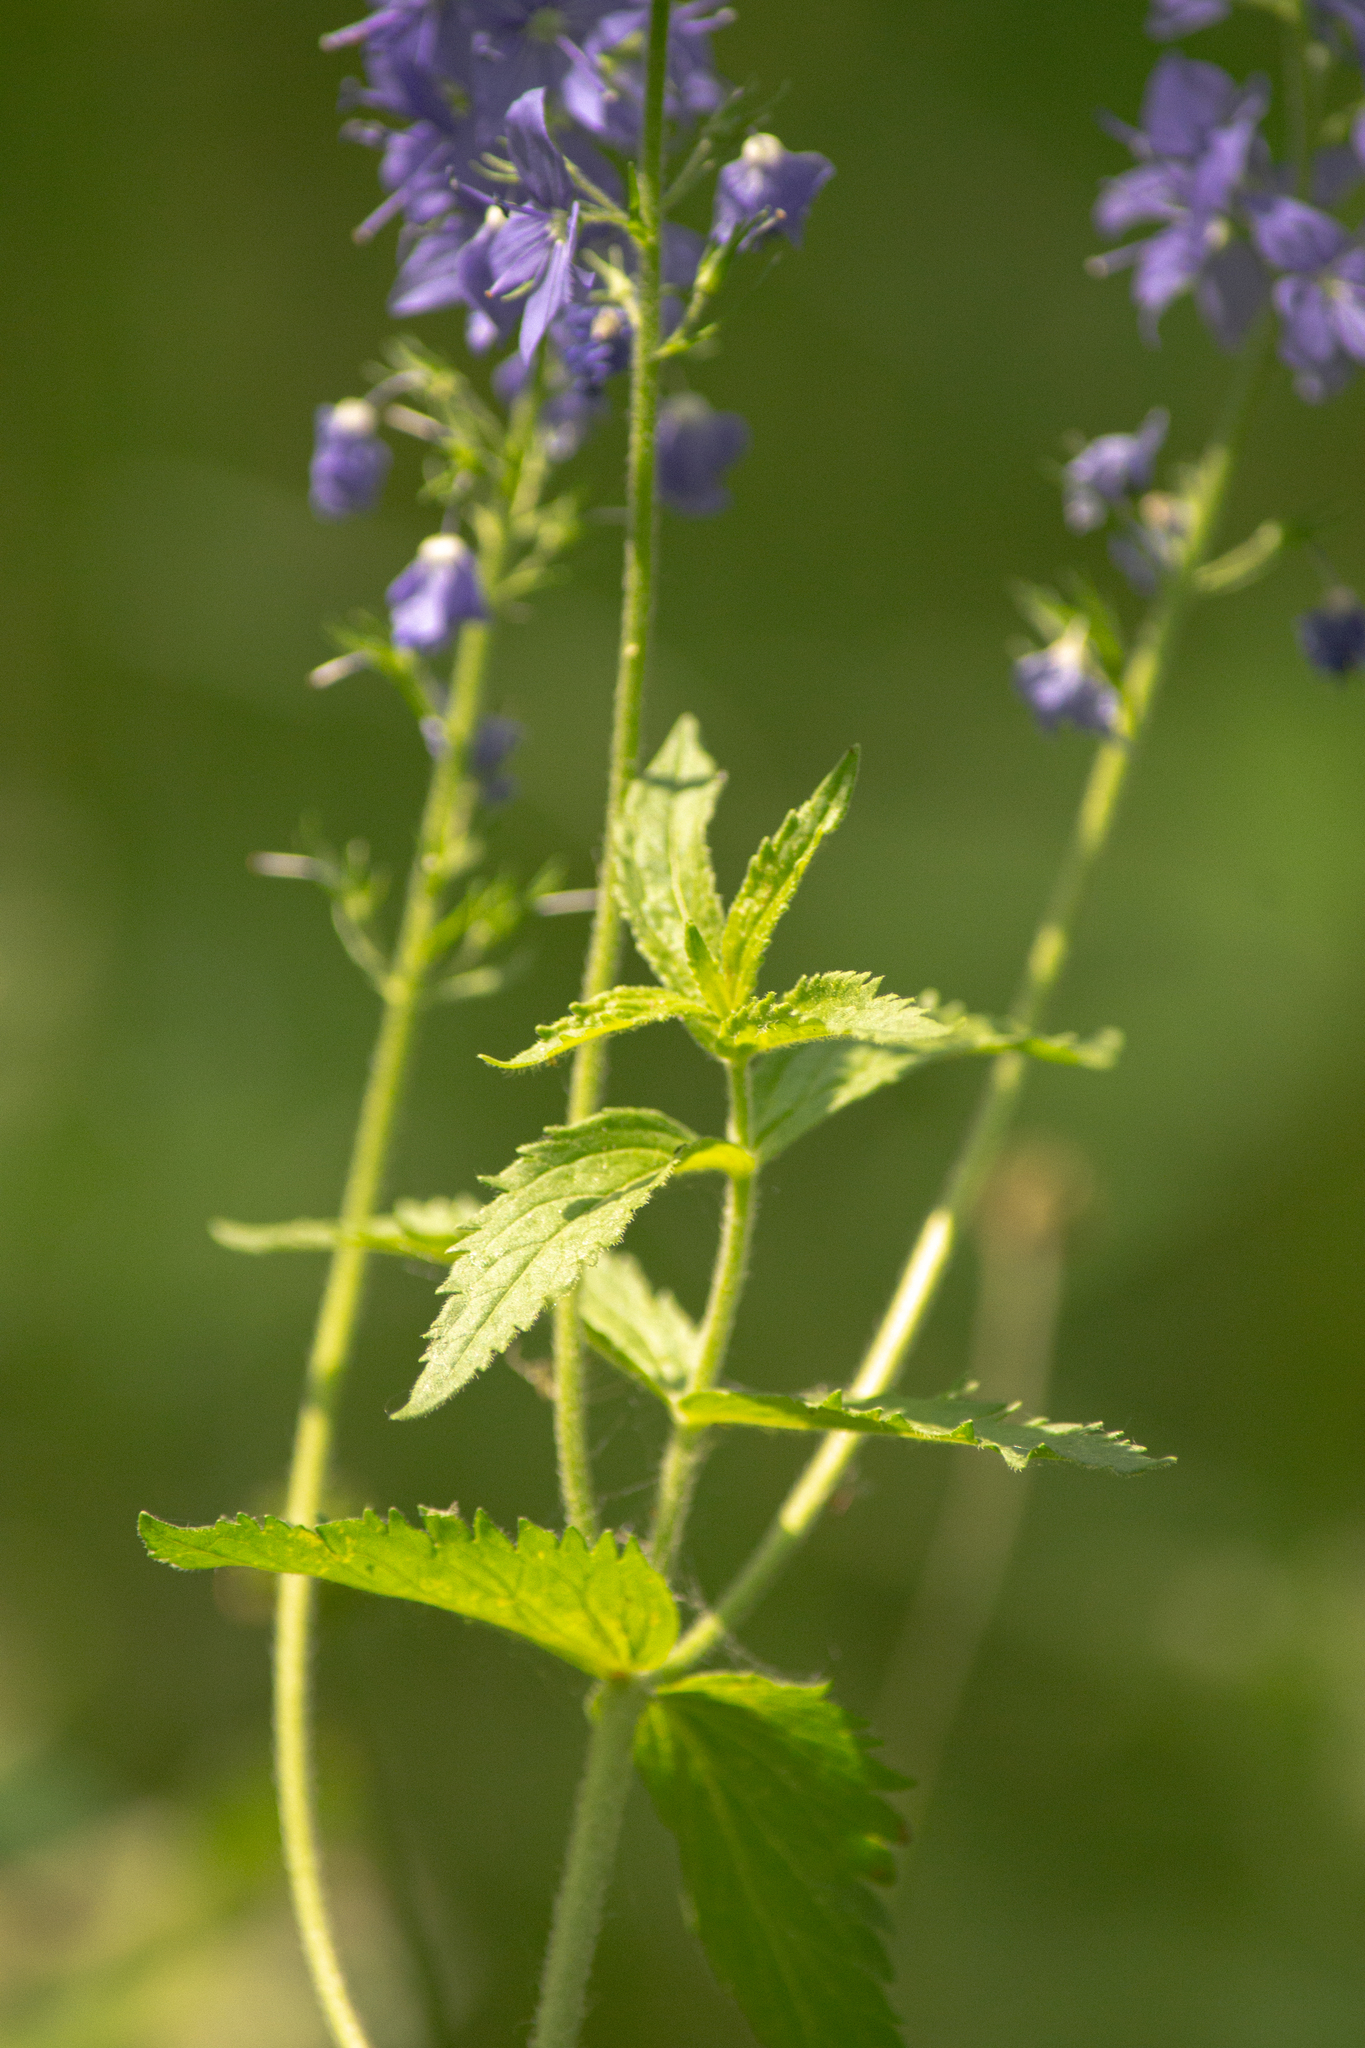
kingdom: Plantae
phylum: Tracheophyta
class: Magnoliopsida
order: Lamiales
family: Plantaginaceae
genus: Veronica
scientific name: Veronica teucrium
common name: Large speedwell
